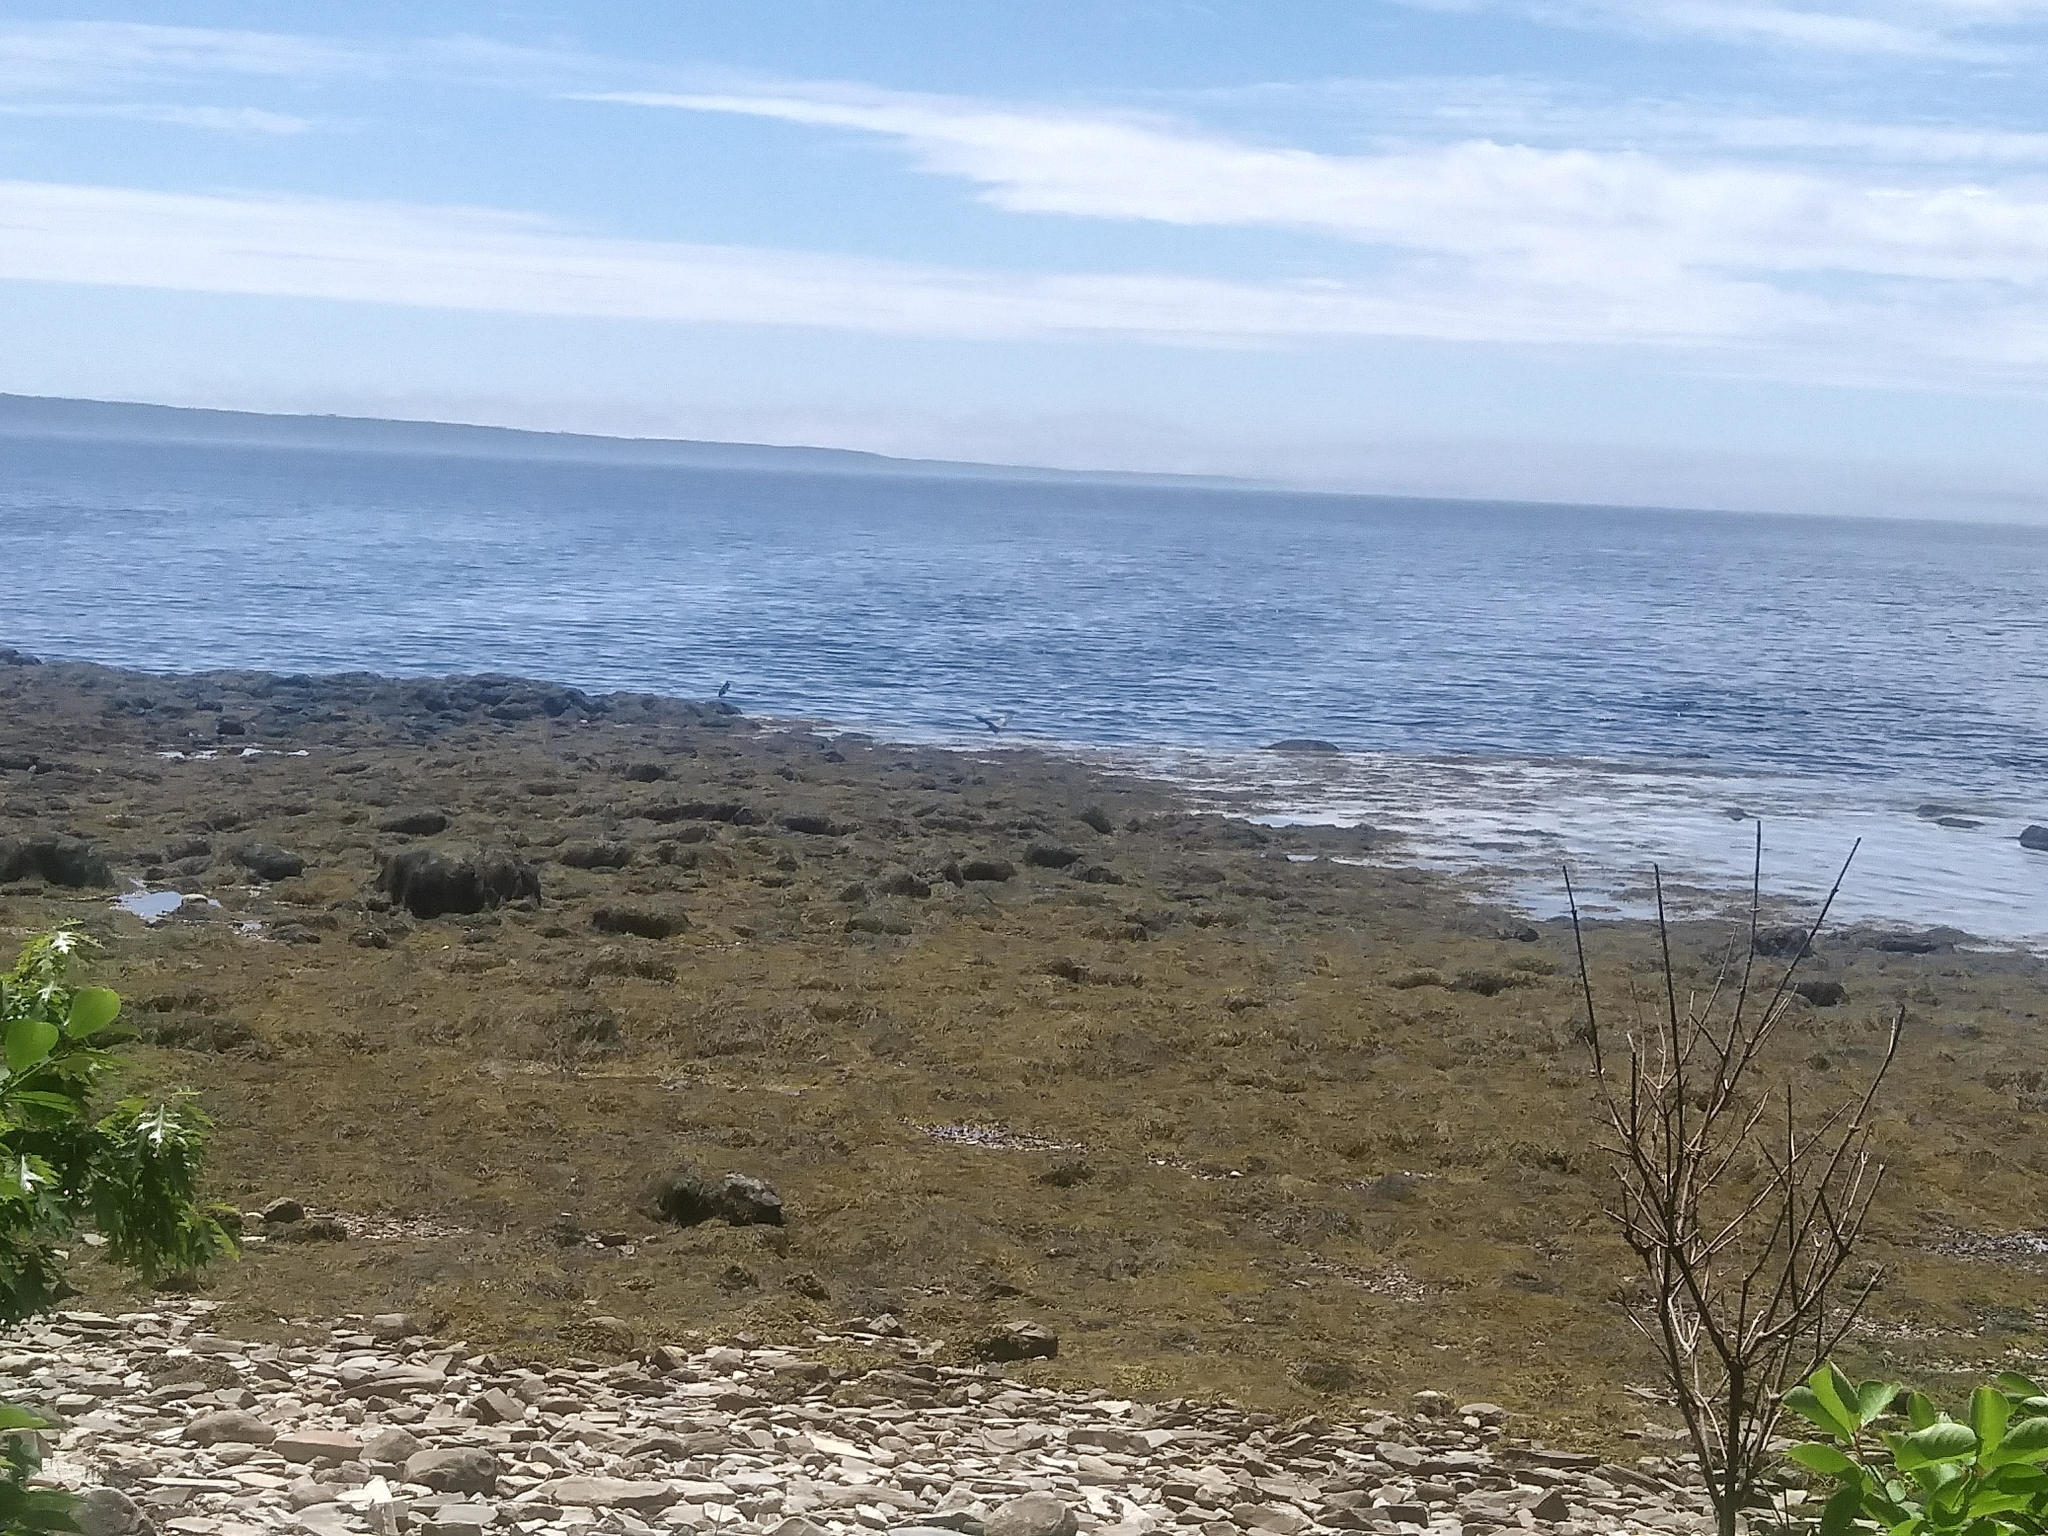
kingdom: Animalia
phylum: Chordata
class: Aves
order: Pelecaniformes
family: Ardeidae
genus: Ardea
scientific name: Ardea herodias
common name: Great blue heron
